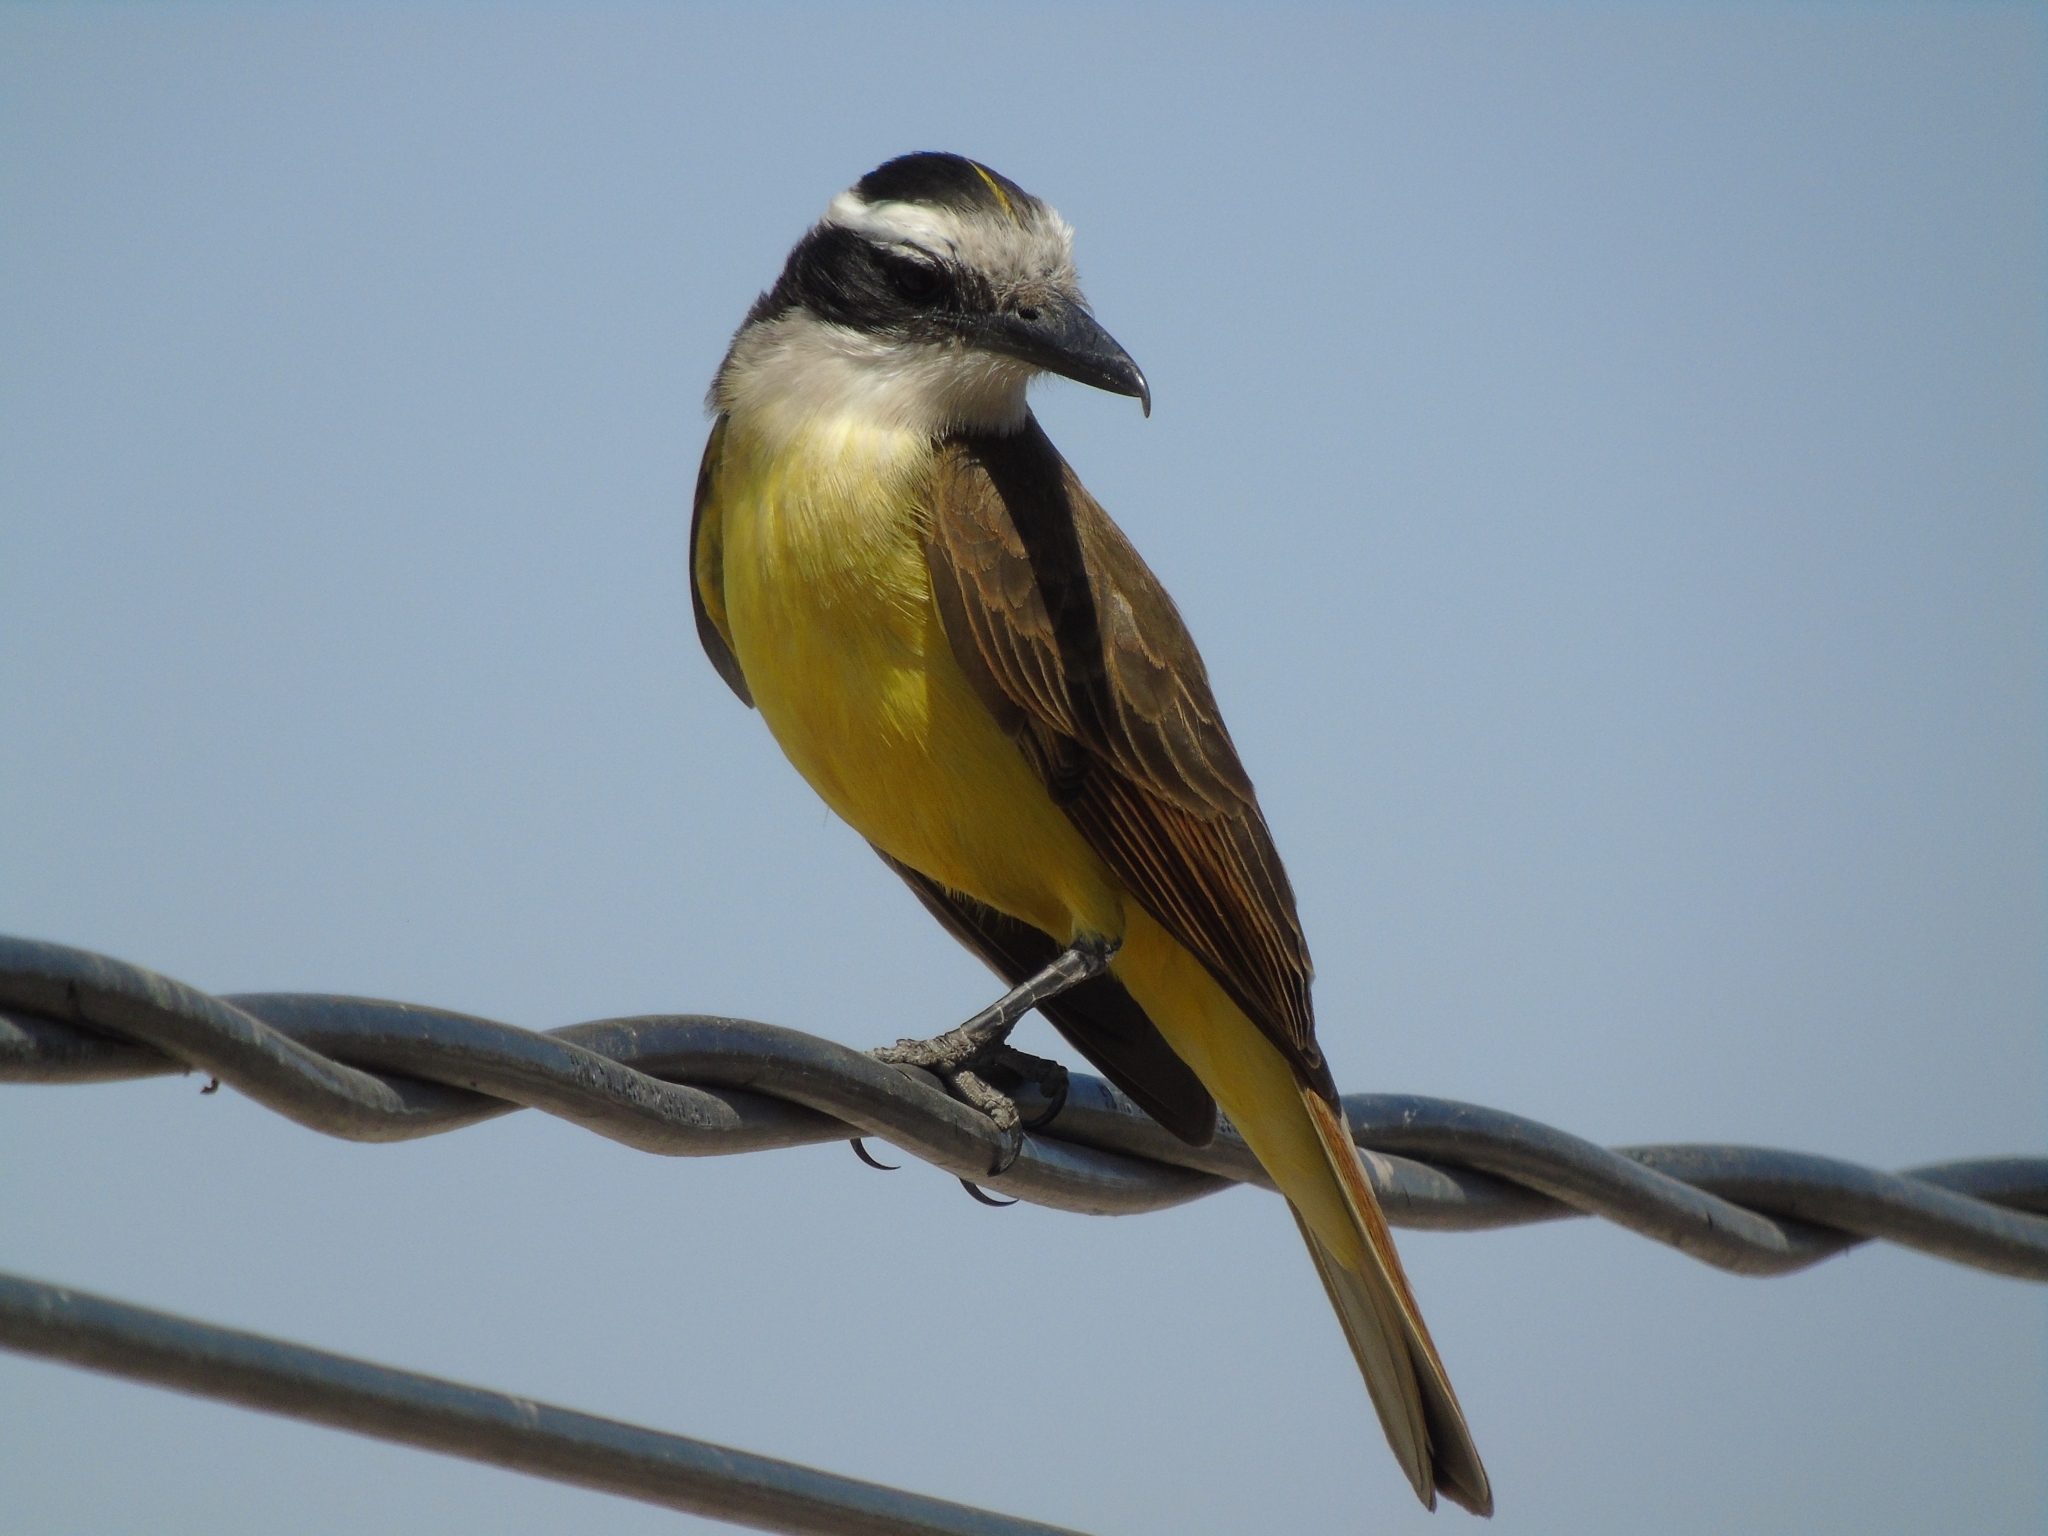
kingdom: Animalia
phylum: Chordata
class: Aves
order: Passeriformes
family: Tyrannidae
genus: Pitangus
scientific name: Pitangus sulphuratus
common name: Great kiskadee
